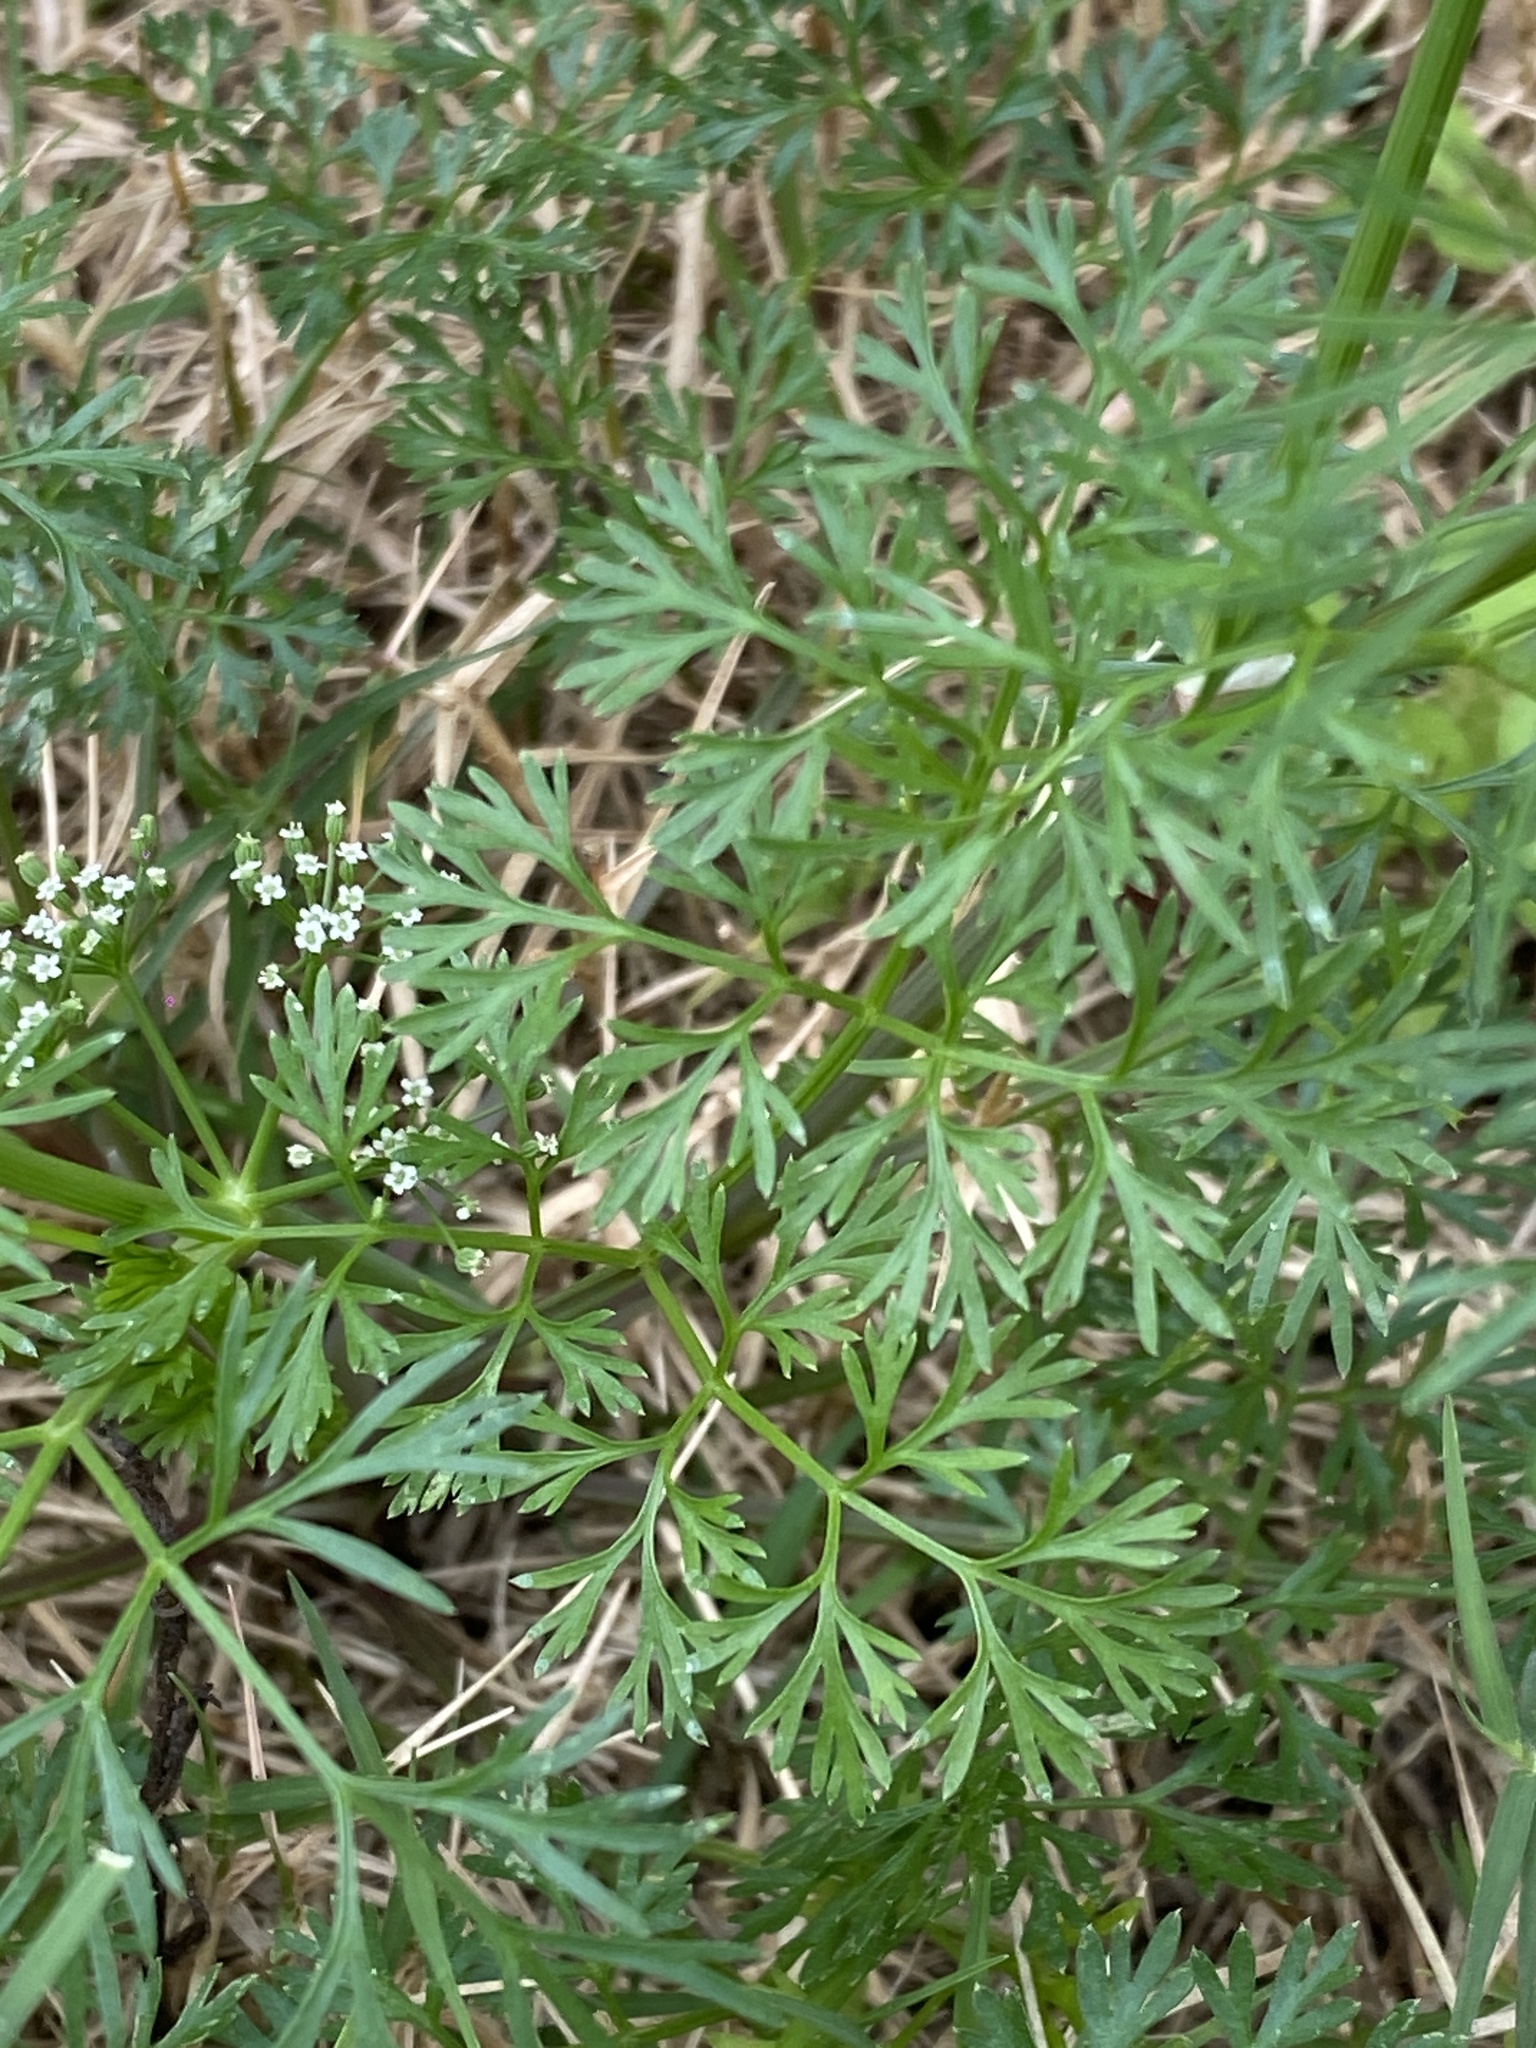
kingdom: Plantae
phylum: Tracheophyta
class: Magnoliopsida
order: Apiales
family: Apiaceae
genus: Cyclospermum
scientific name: Cyclospermum leptophyllum
